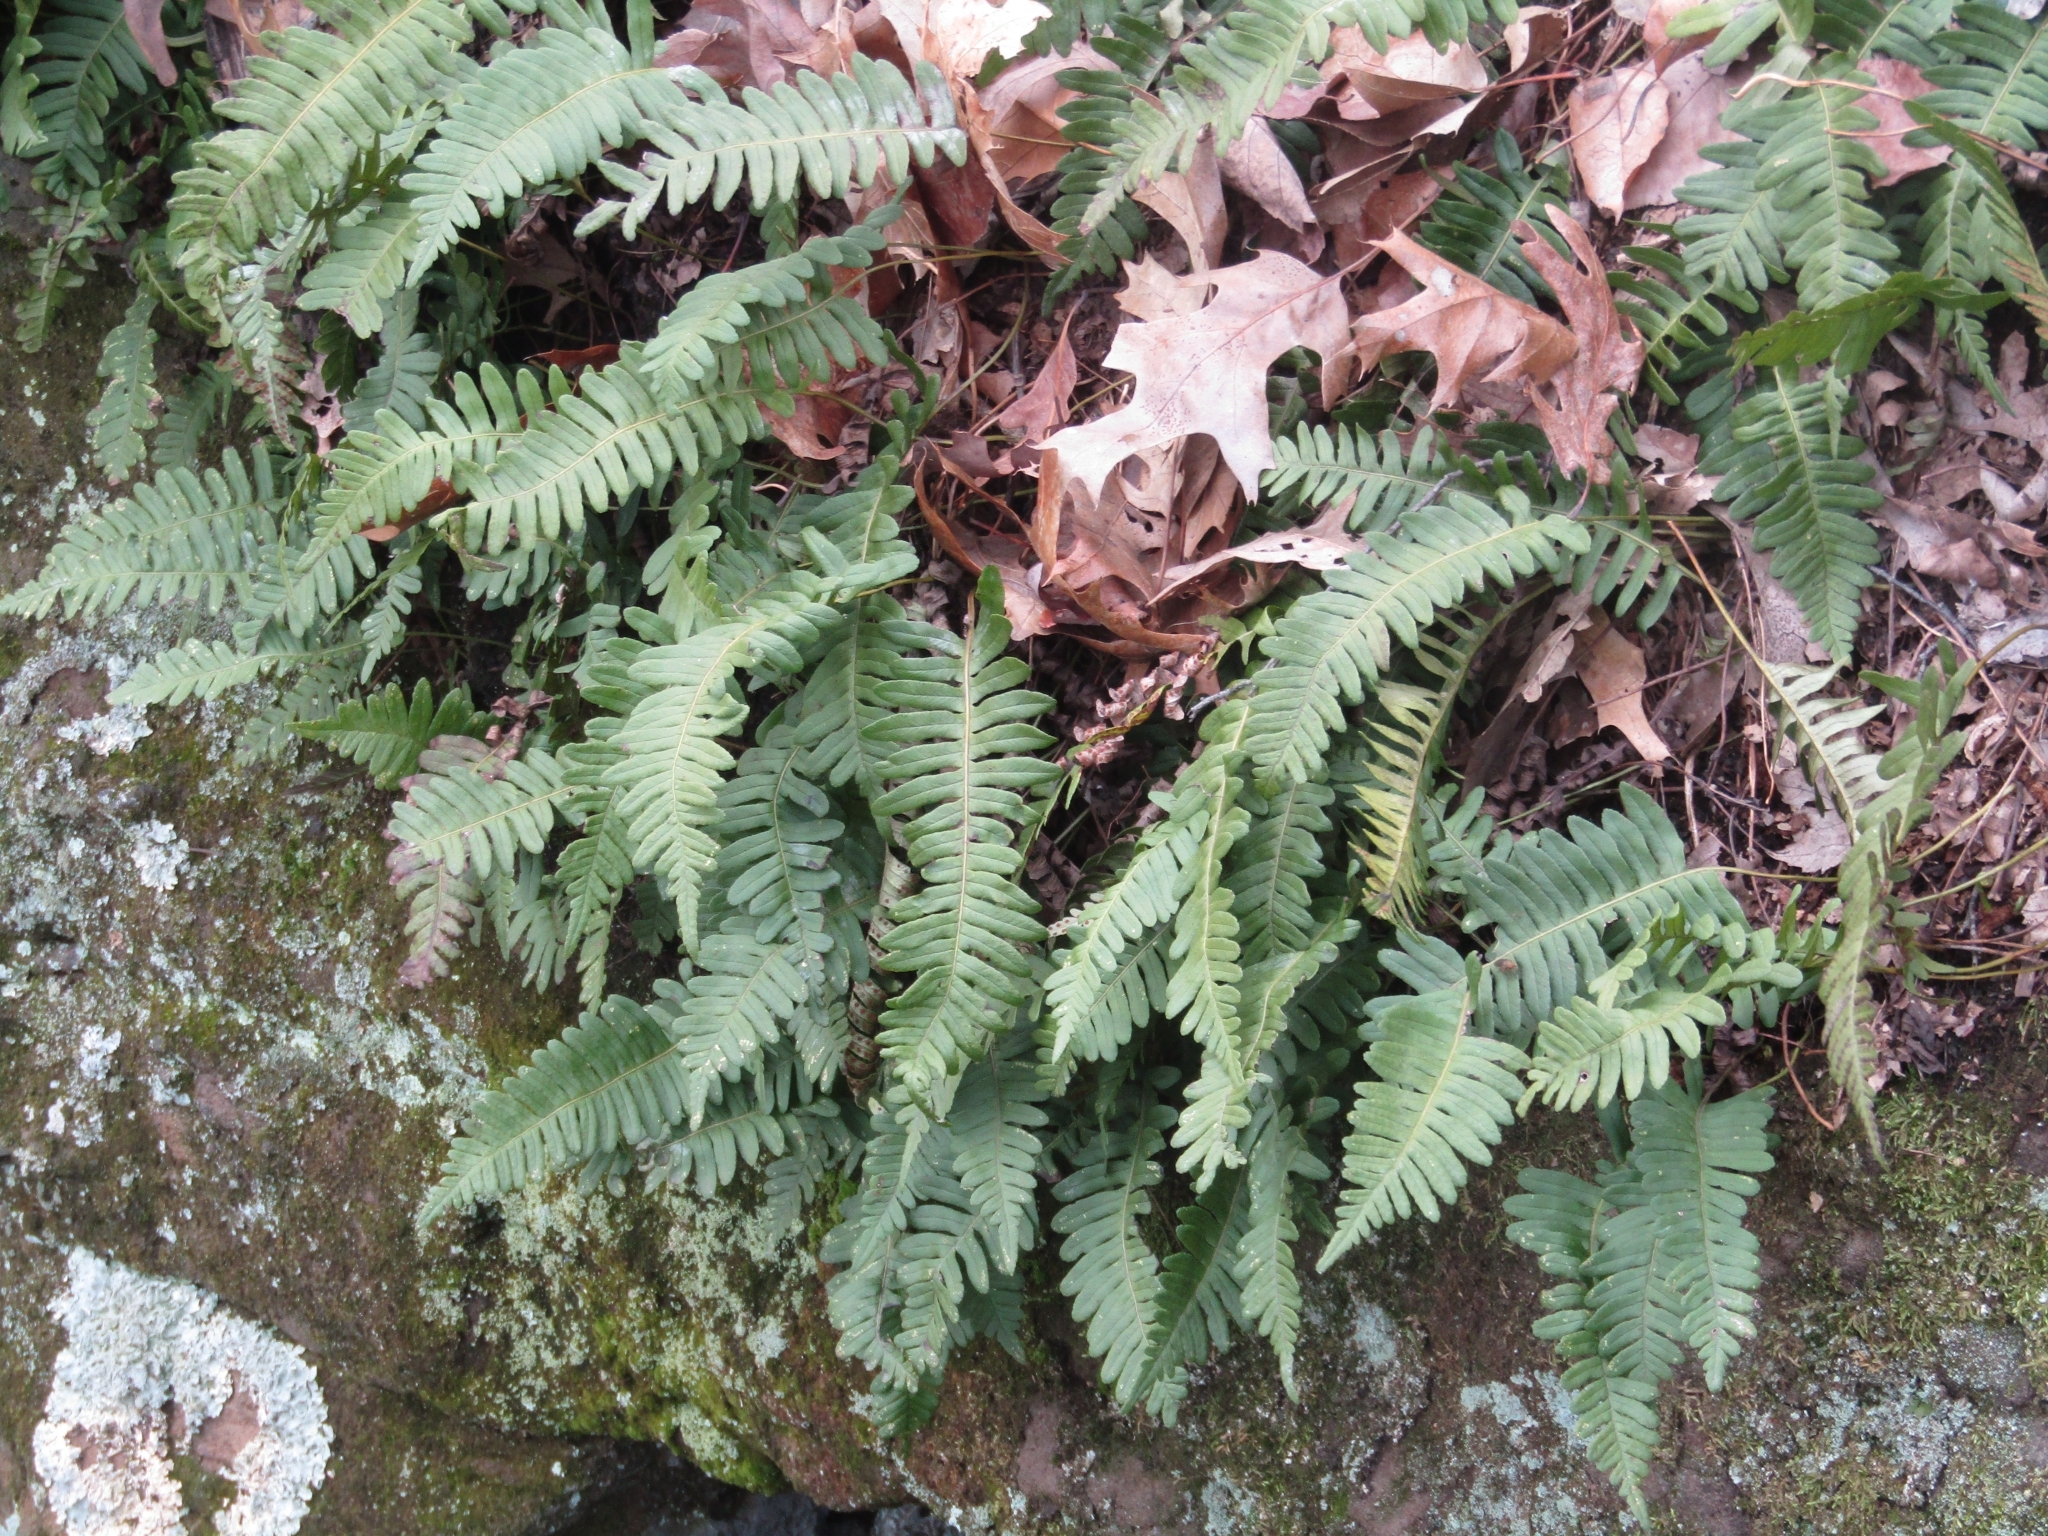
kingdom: Plantae
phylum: Tracheophyta
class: Polypodiopsida
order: Polypodiales
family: Polypodiaceae
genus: Polypodium
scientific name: Polypodium virginianum
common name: American wall fern
